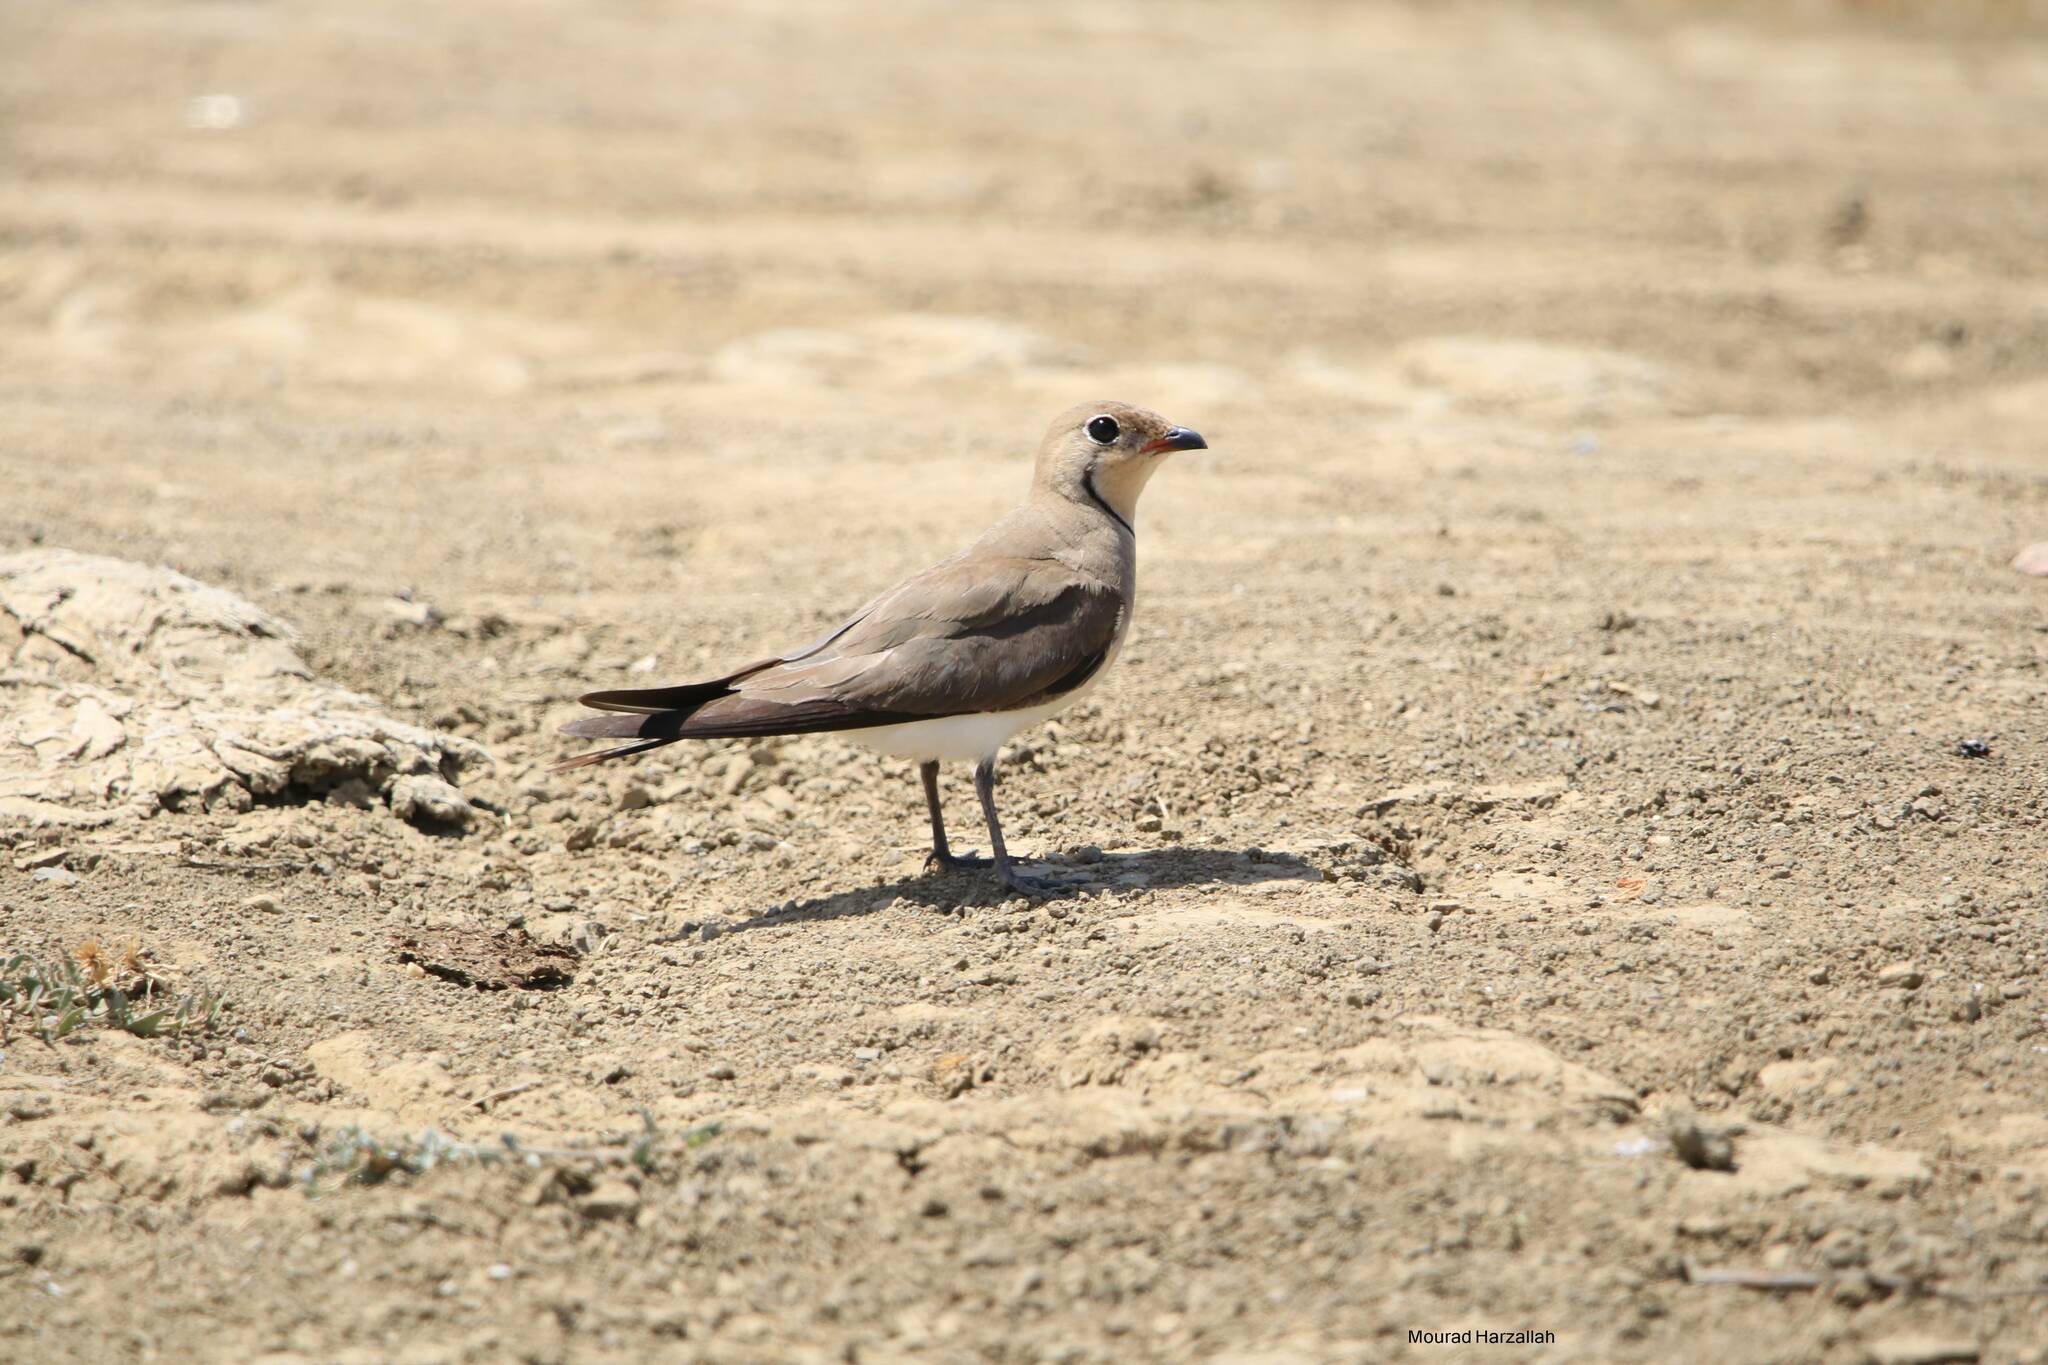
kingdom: Animalia
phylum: Chordata
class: Aves
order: Charadriiformes
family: Glareolidae
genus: Glareola
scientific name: Glareola pratincola
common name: Collared pratincole
